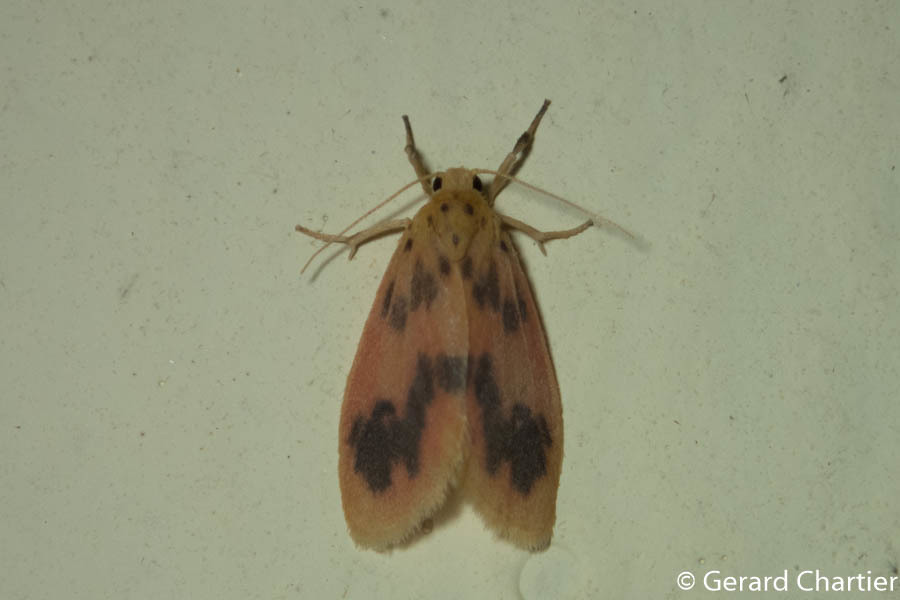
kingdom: Animalia
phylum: Arthropoda
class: Insecta
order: Lepidoptera
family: Erebidae
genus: Miltochrista
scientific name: Miltochrista
